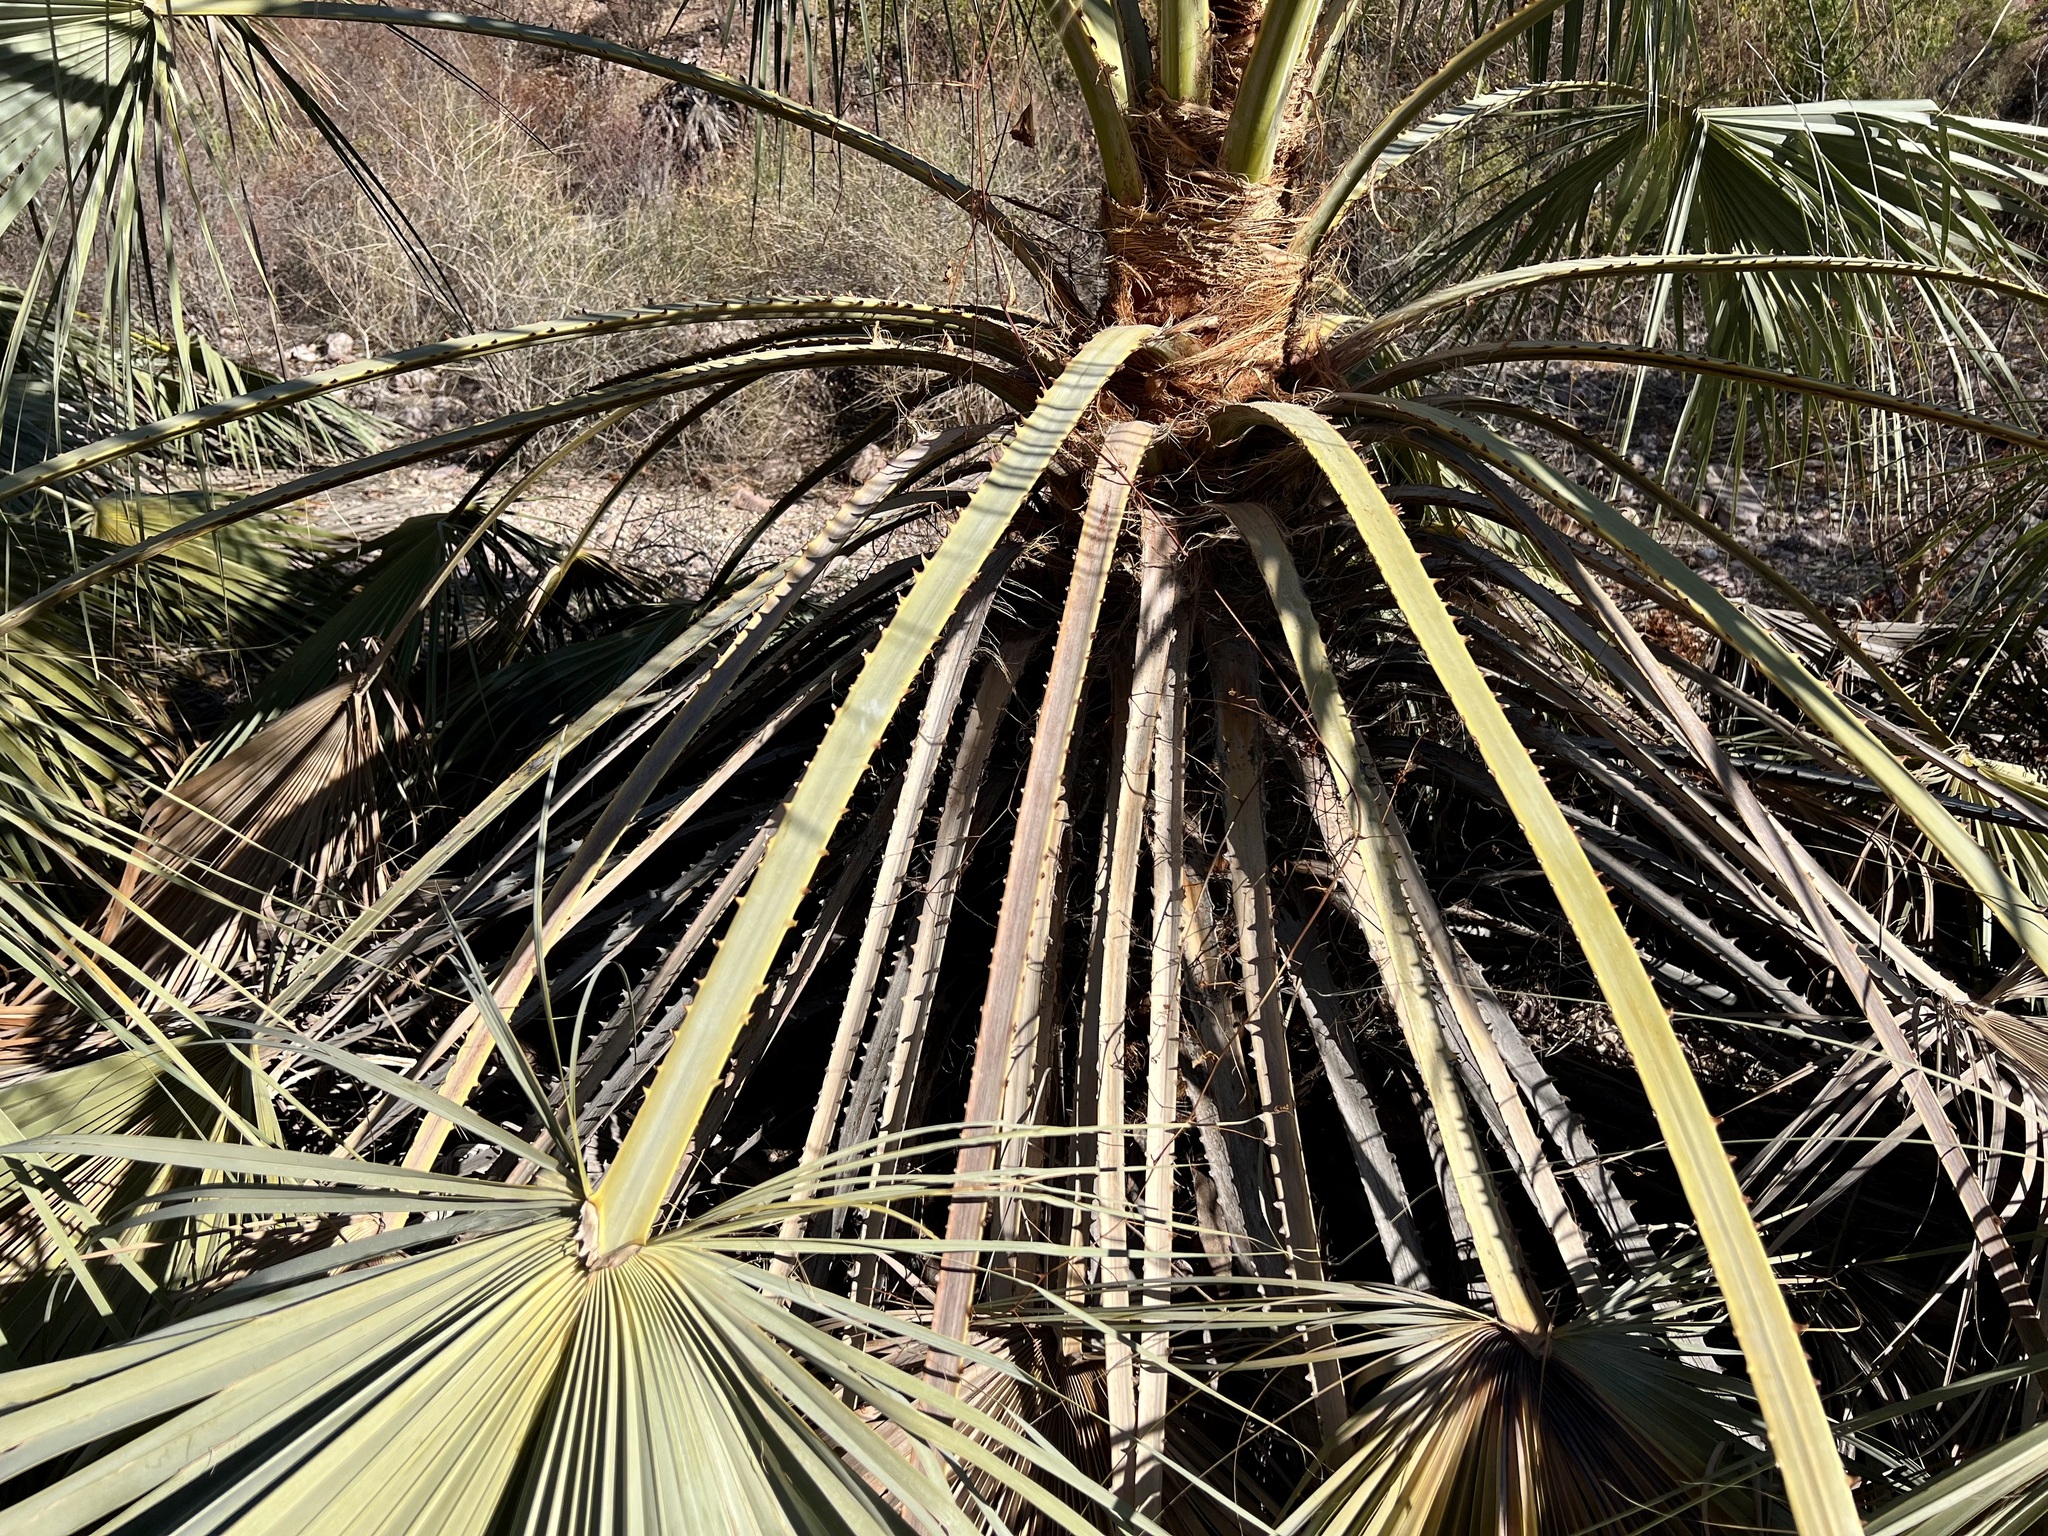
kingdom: Plantae
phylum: Tracheophyta
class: Liliopsida
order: Arecales
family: Arecaceae
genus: Brahea
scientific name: Brahea brandegeei
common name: San jose hesper palm
